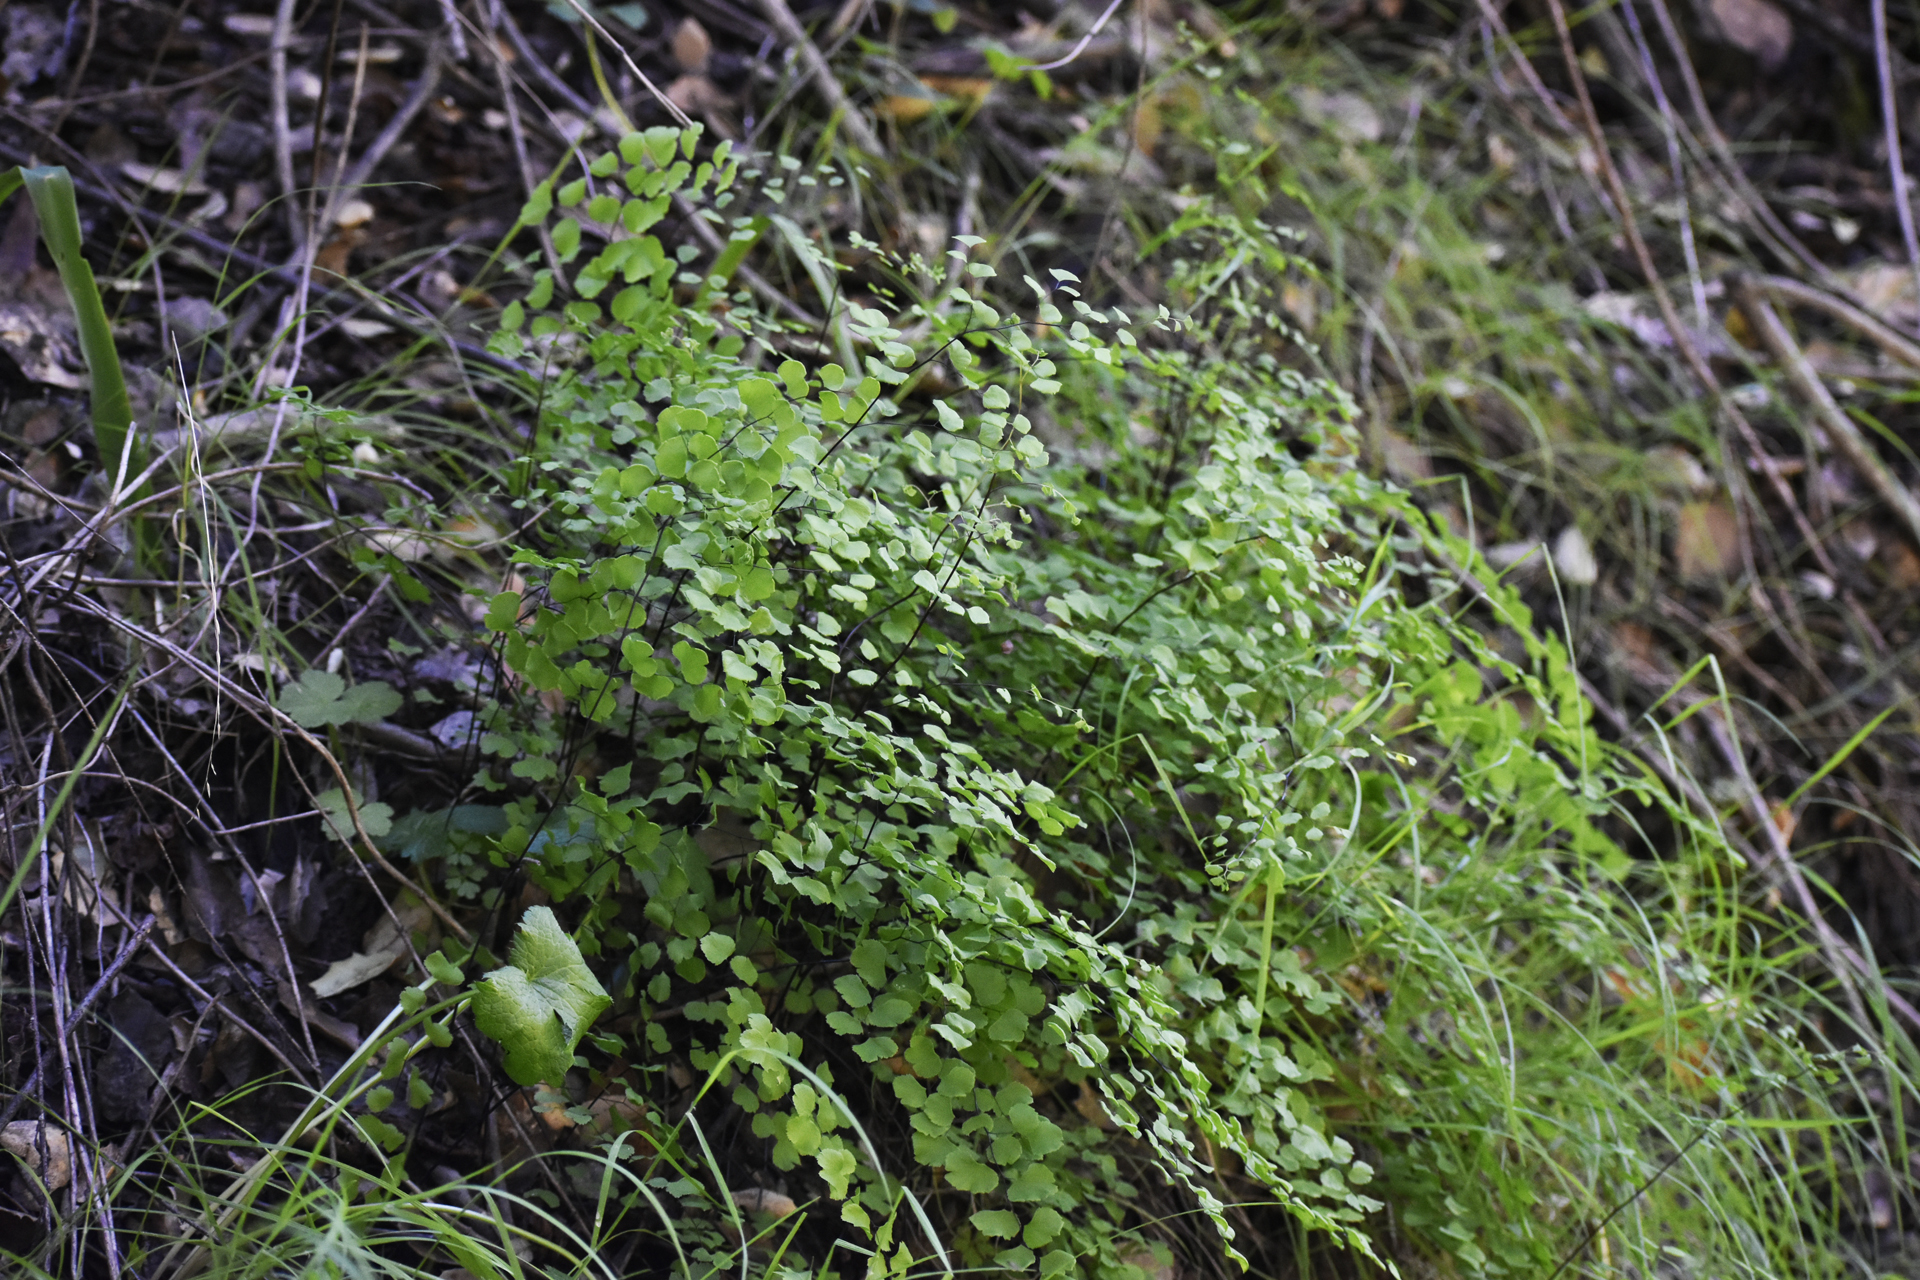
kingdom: Plantae
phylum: Tracheophyta
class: Polypodiopsida
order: Polypodiales
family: Pteridaceae
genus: Adiantum
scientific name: Adiantum jordanii
